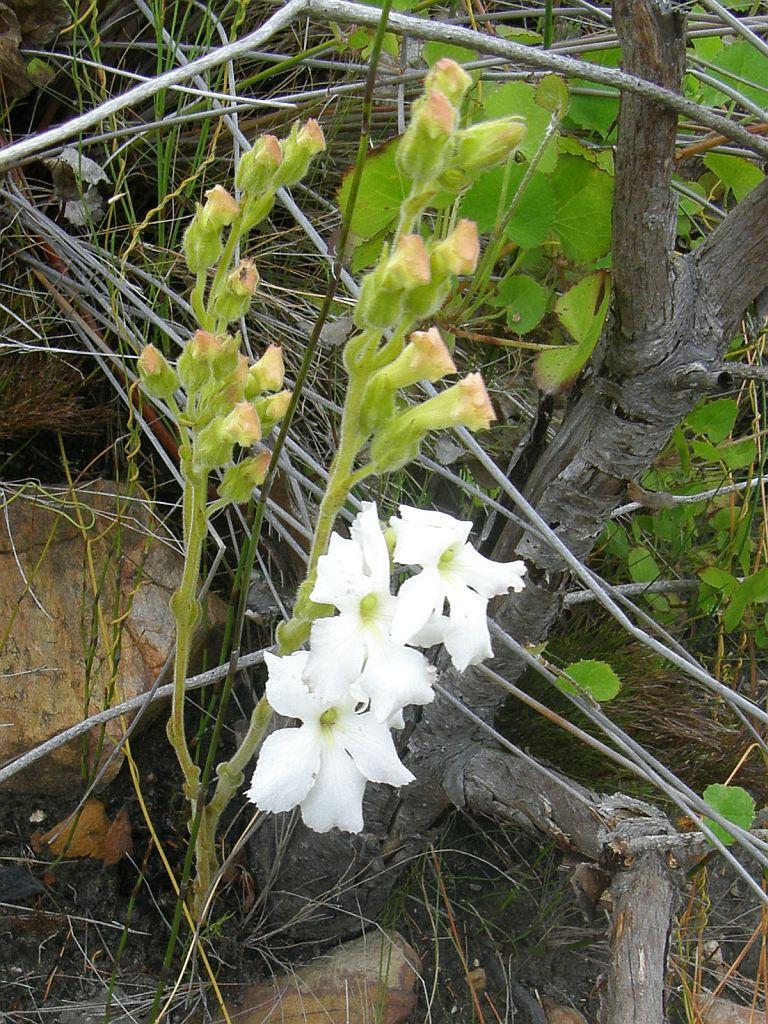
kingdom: Plantae
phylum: Tracheophyta
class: Magnoliopsida
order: Lamiales
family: Orobanchaceae
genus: Harveya
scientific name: Harveya capensis
